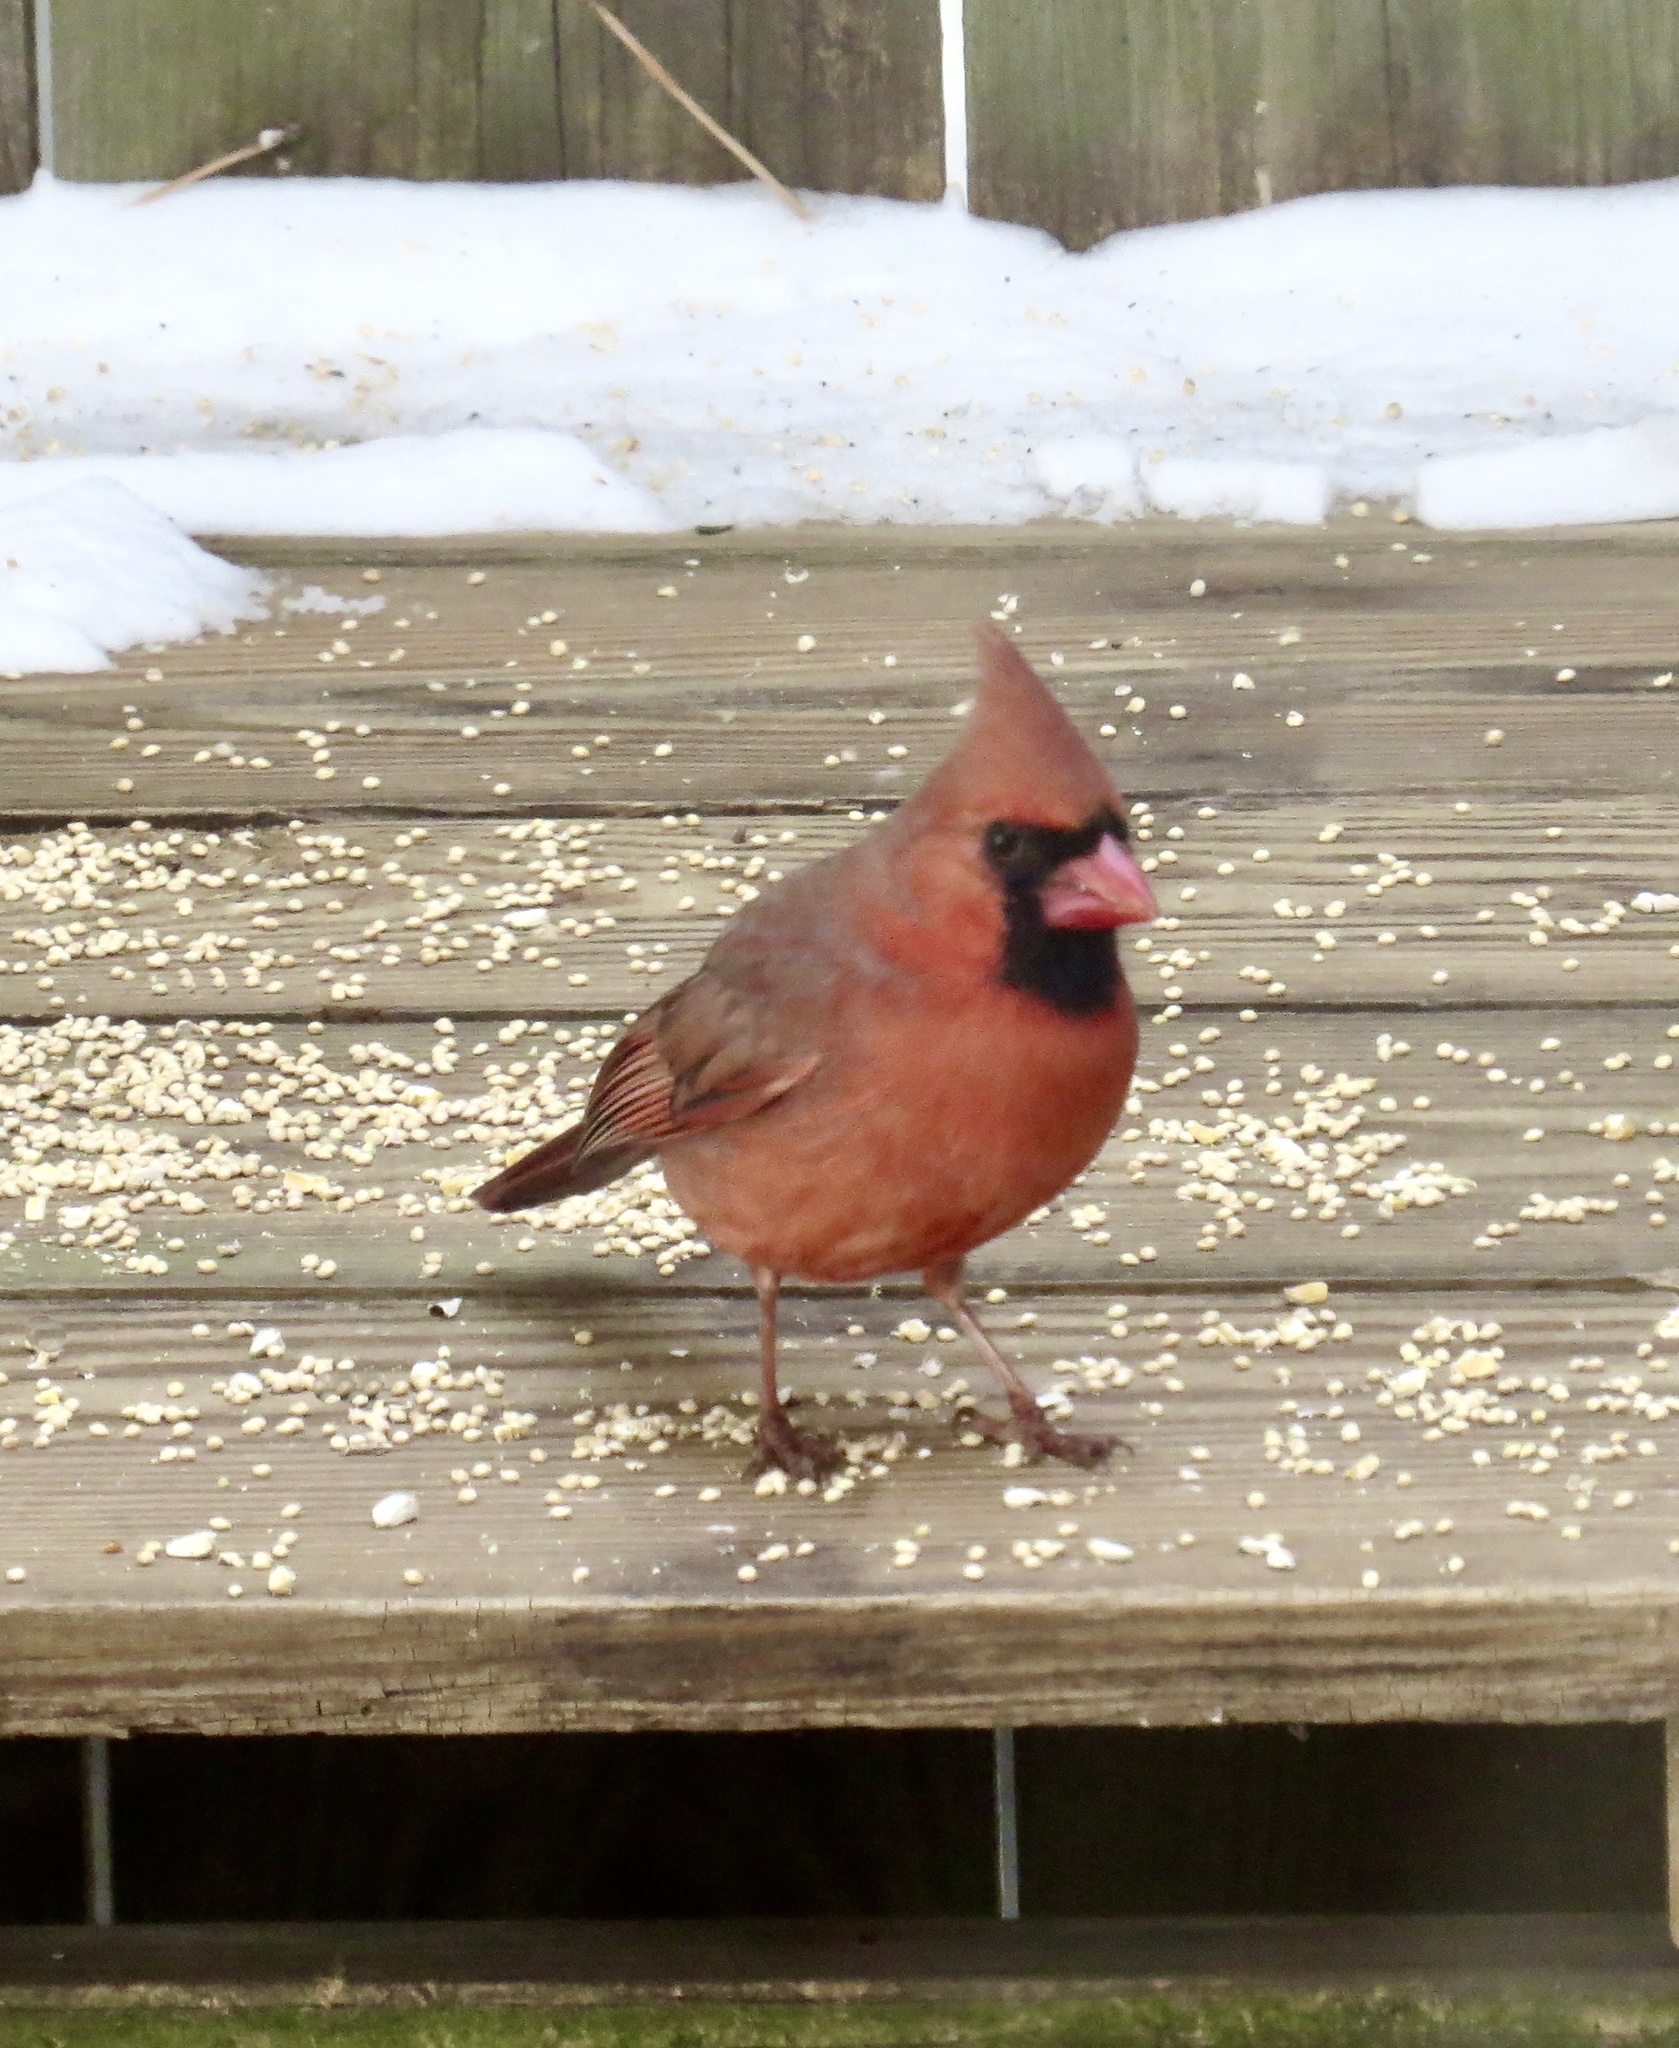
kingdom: Animalia
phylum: Chordata
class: Aves
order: Passeriformes
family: Cardinalidae
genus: Cardinalis
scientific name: Cardinalis cardinalis
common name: Northern cardinal
